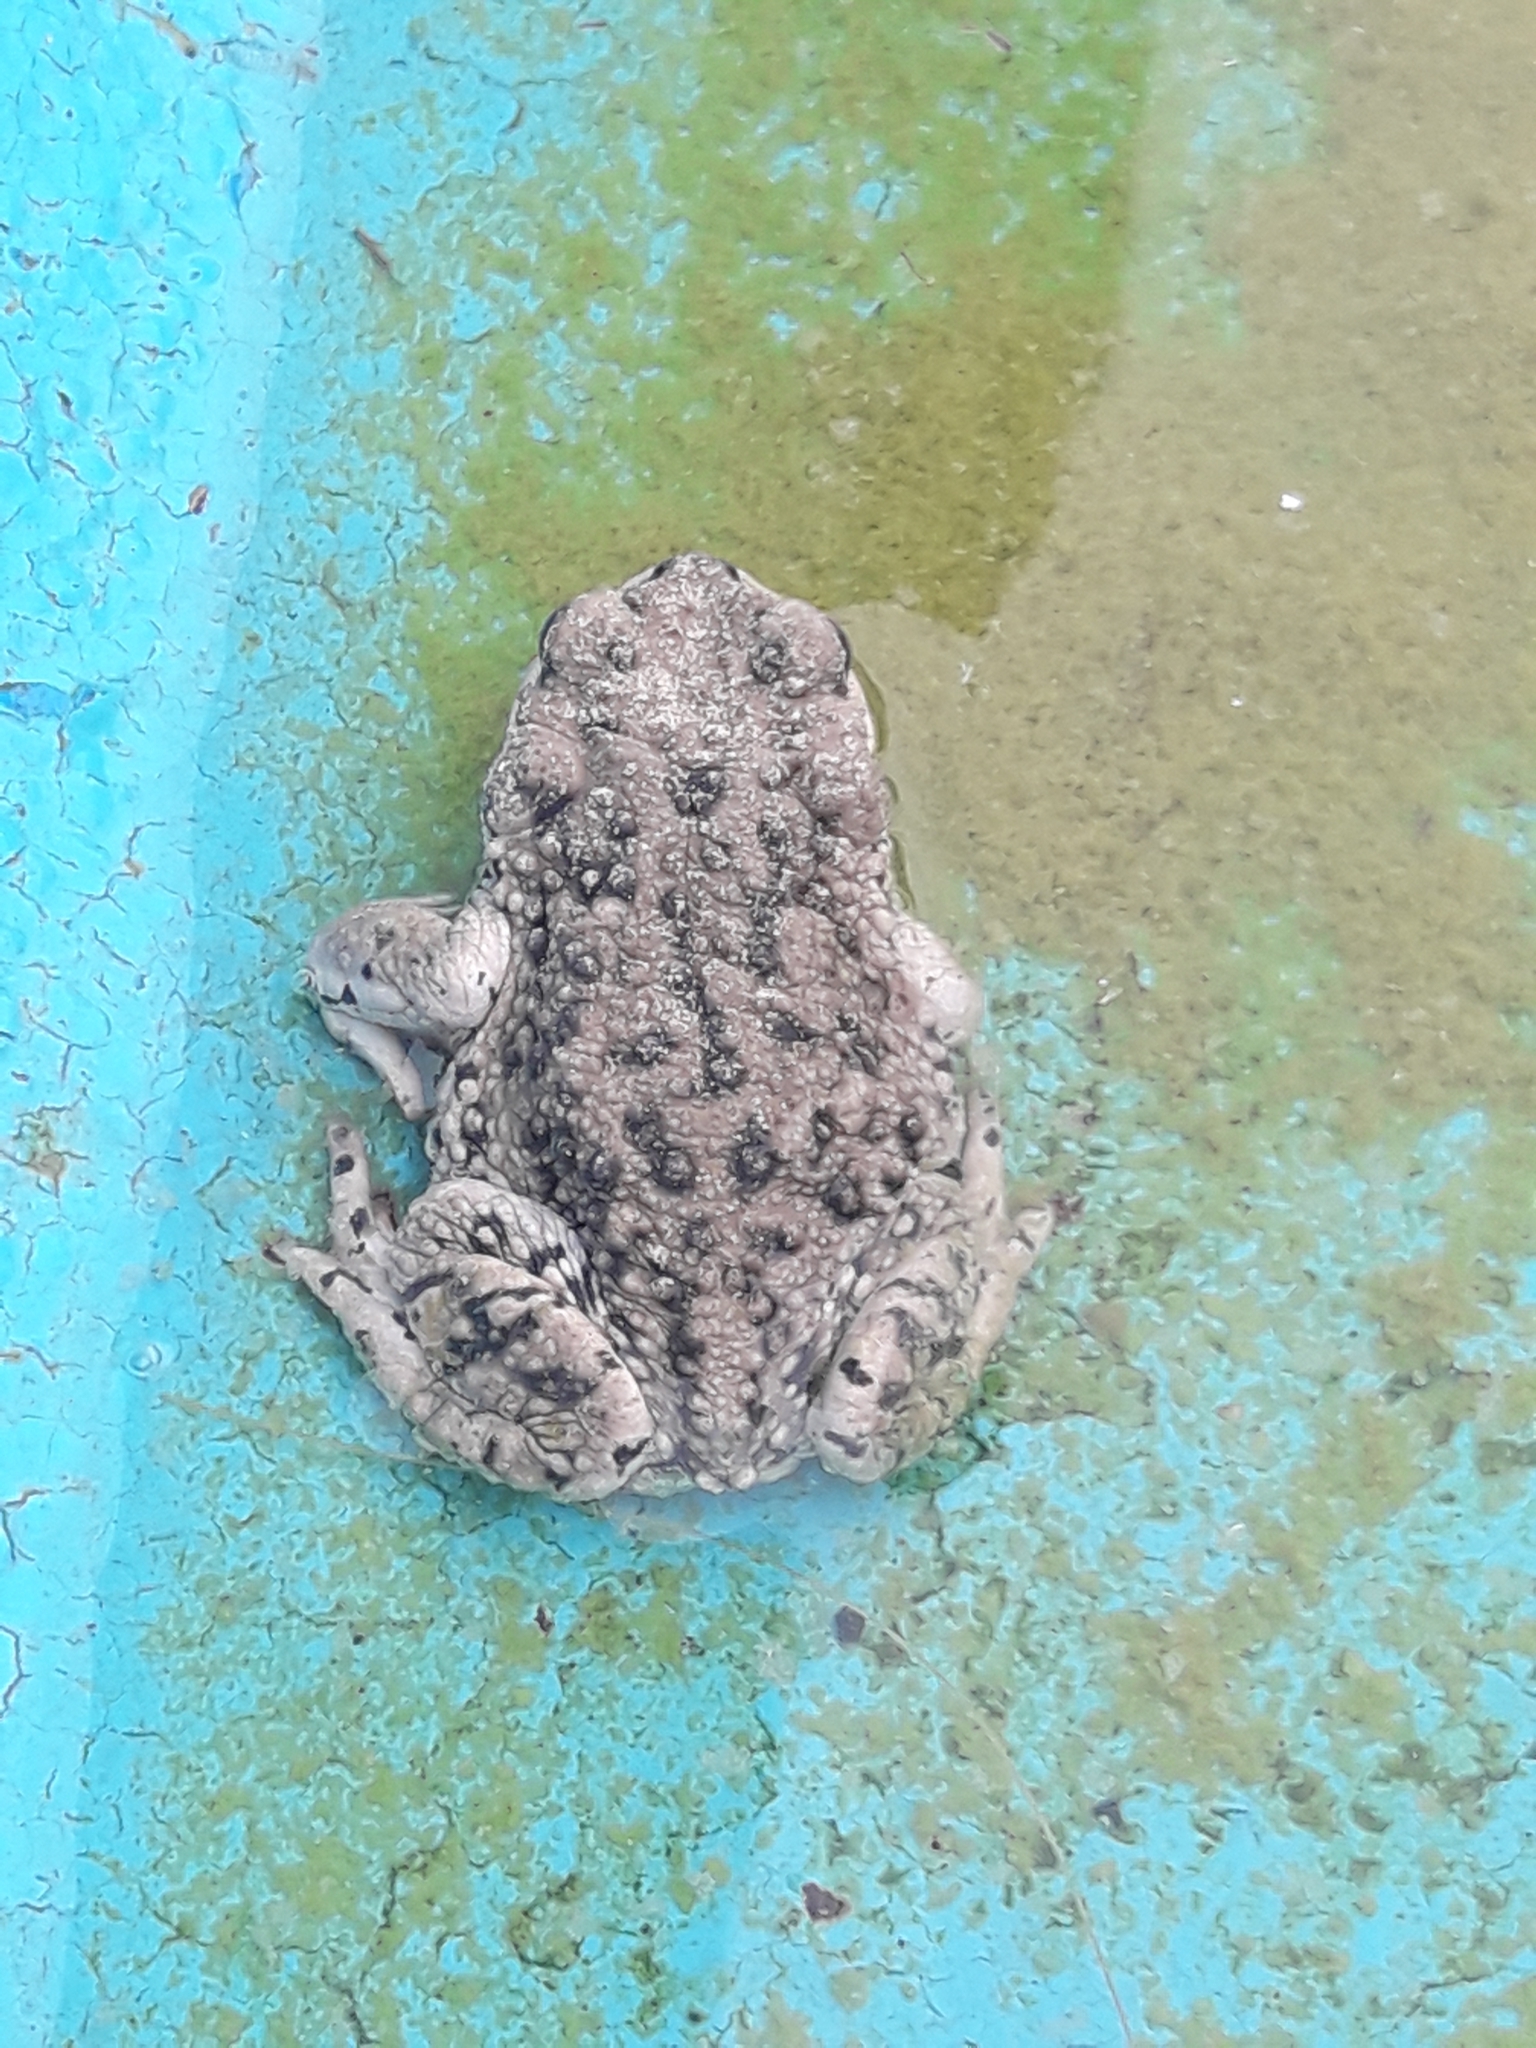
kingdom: Animalia
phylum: Chordata
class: Amphibia
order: Anura
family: Bufonidae
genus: Rhinella
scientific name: Rhinella arunco
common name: Concepcion toad
